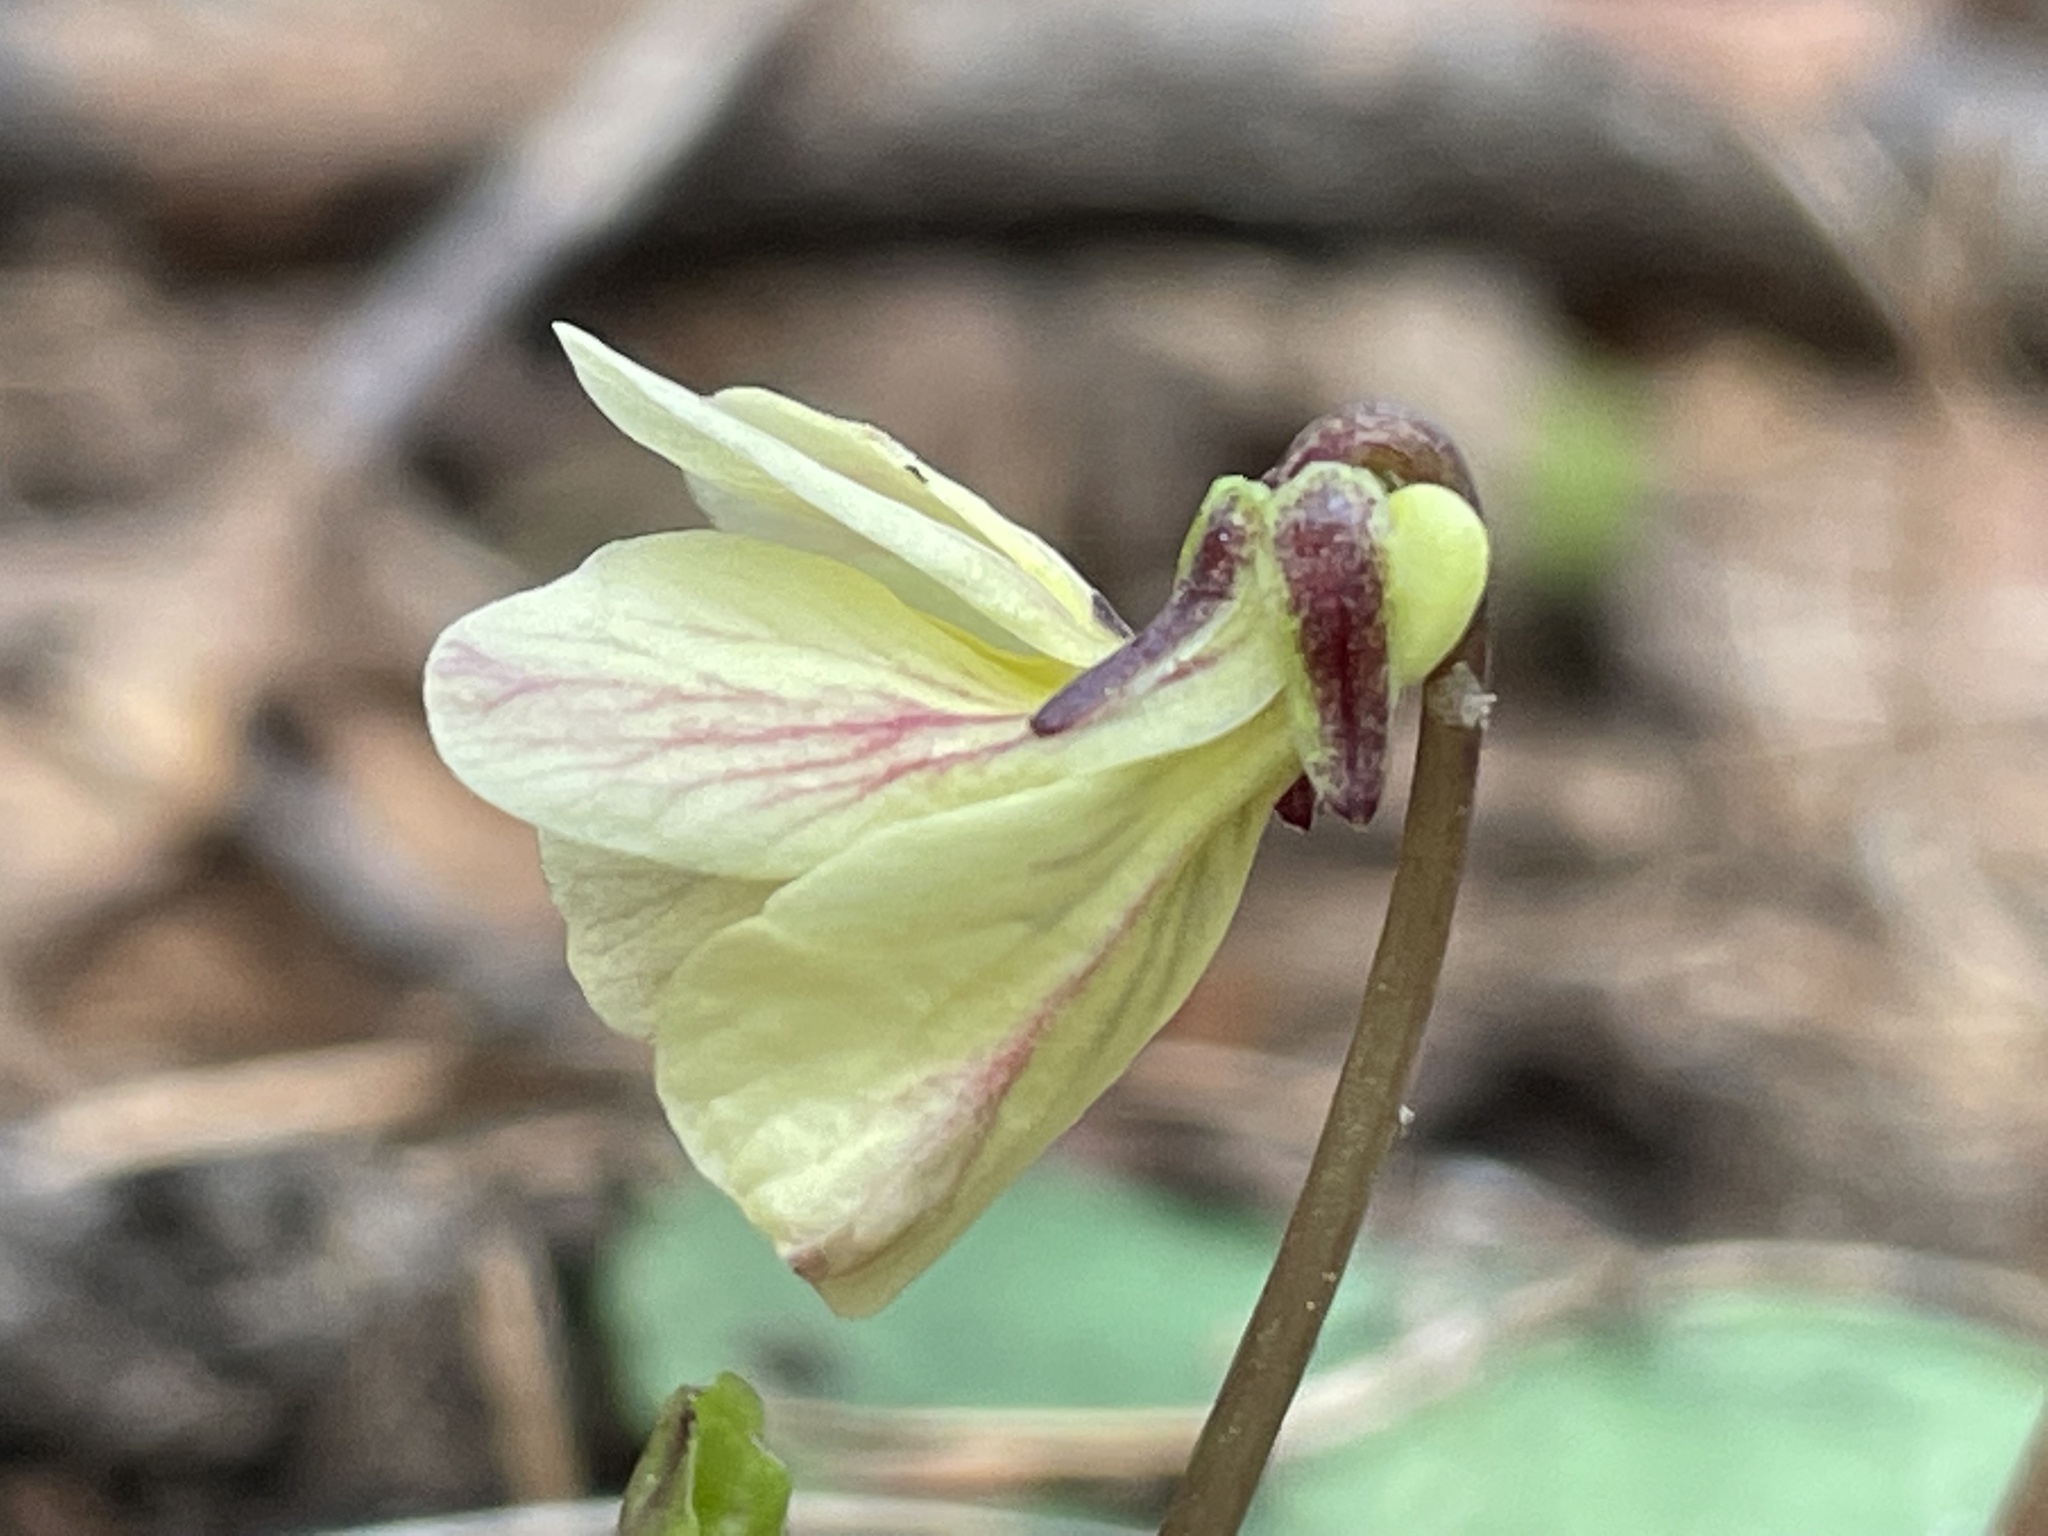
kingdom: Plantae
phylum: Tracheophyta
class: Magnoliopsida
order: Malpighiales
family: Violaceae
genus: Viola
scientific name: Viola orbiculata
